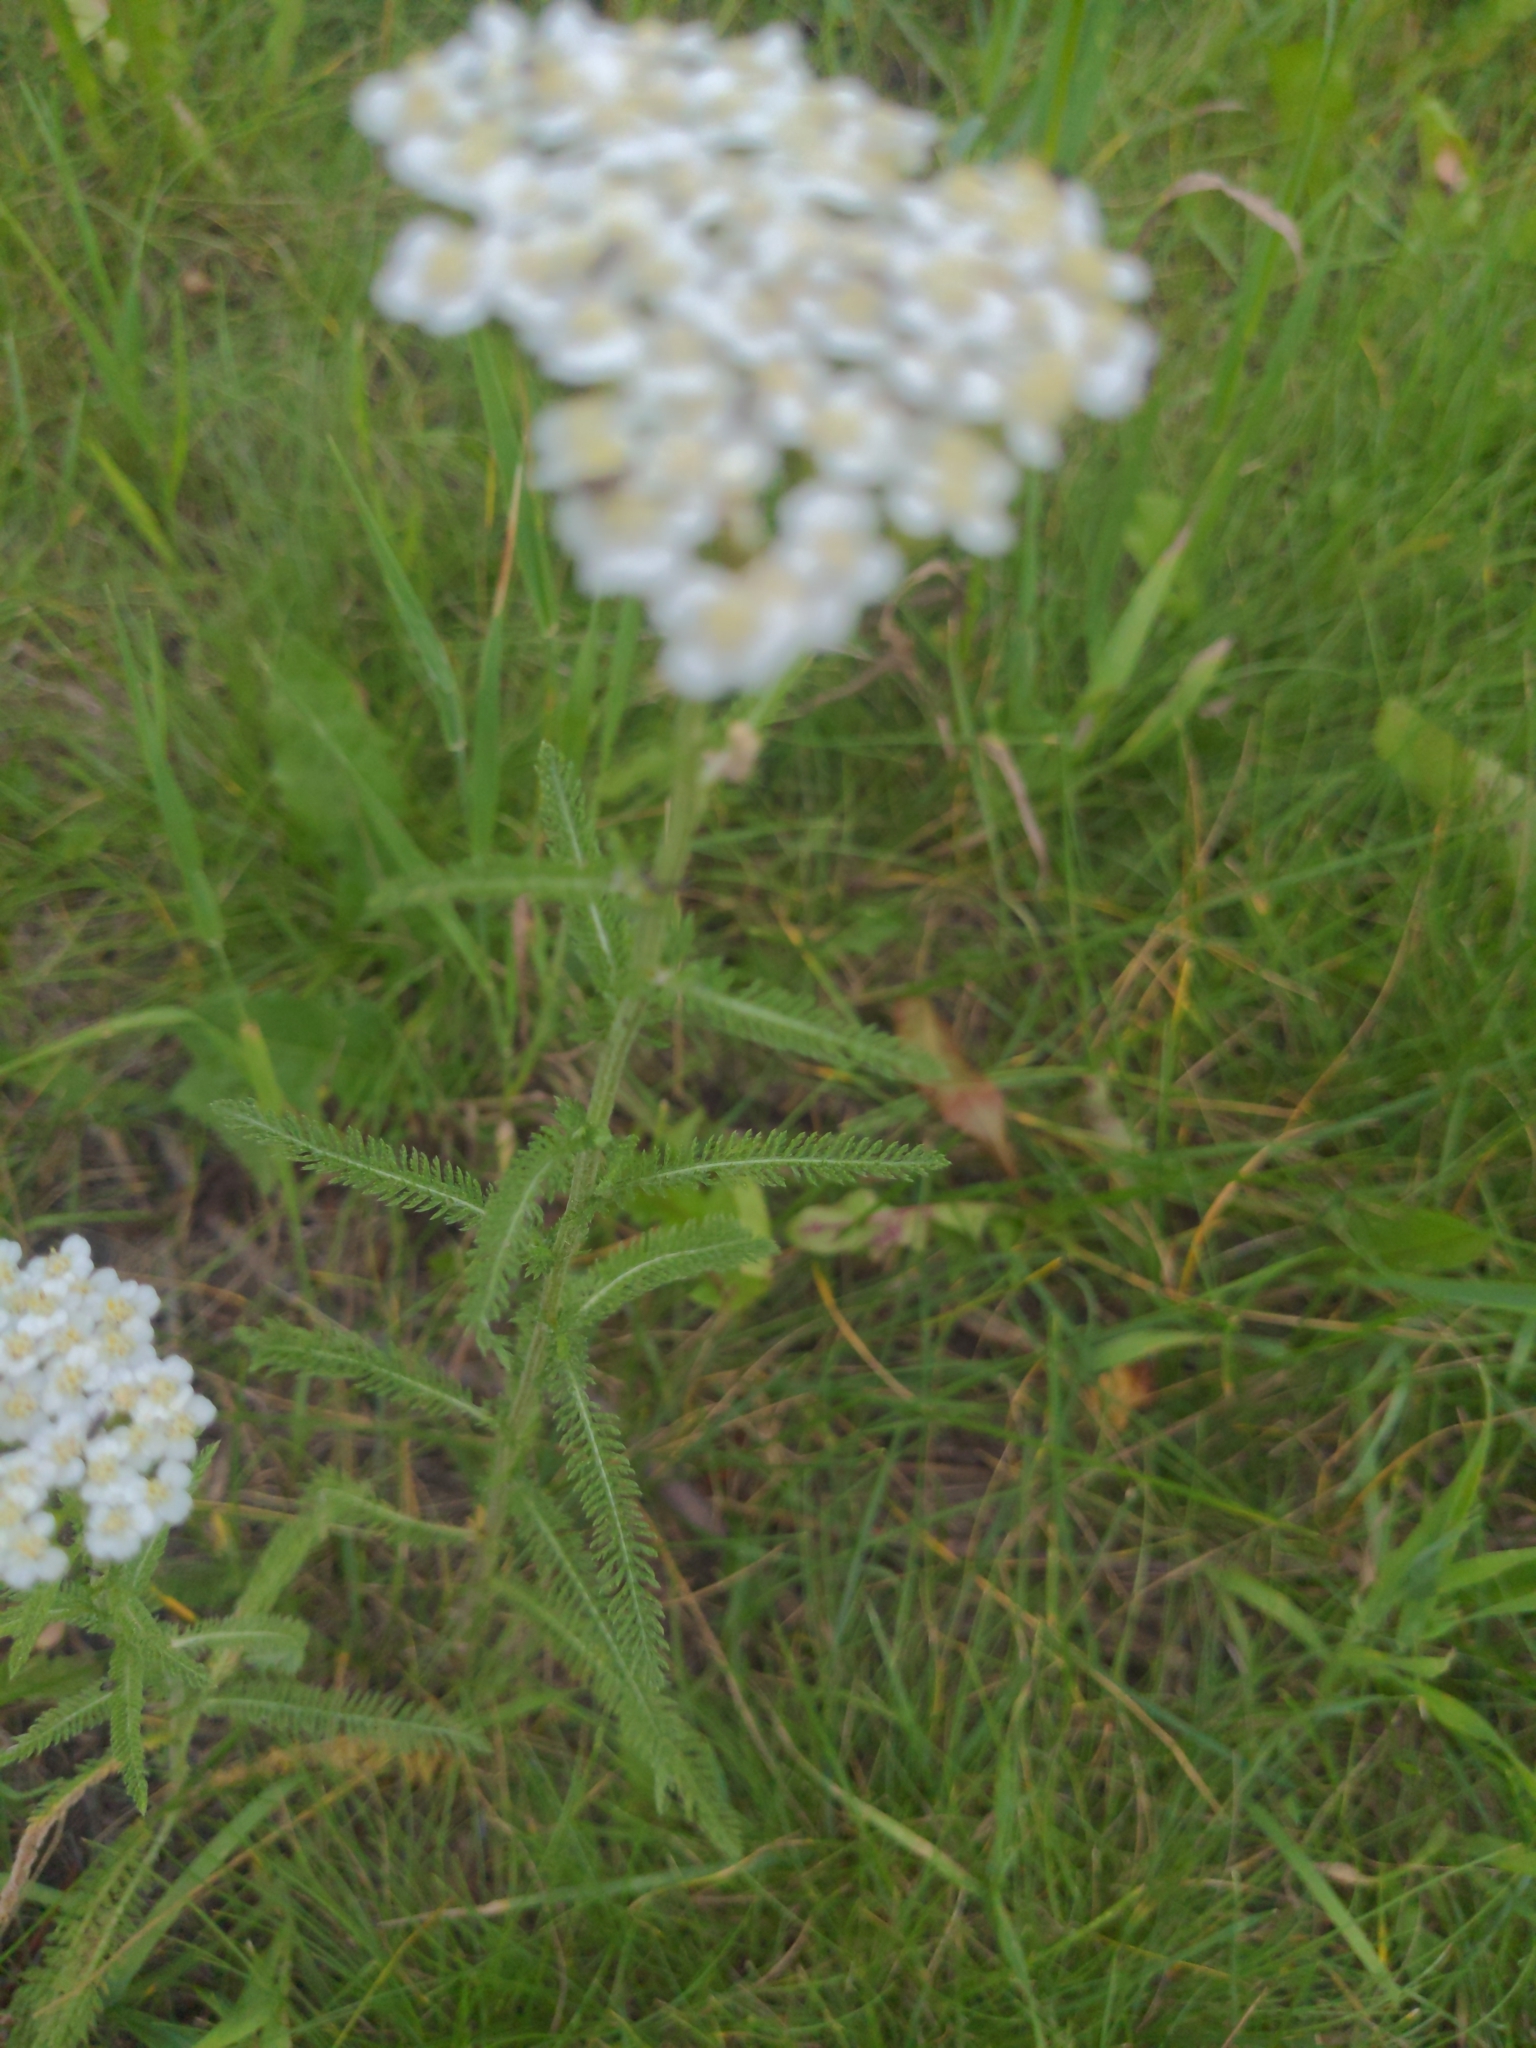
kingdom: Plantae
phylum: Tracheophyta
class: Magnoliopsida
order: Asterales
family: Asteraceae
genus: Achillea
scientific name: Achillea millefolium
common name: Yarrow
